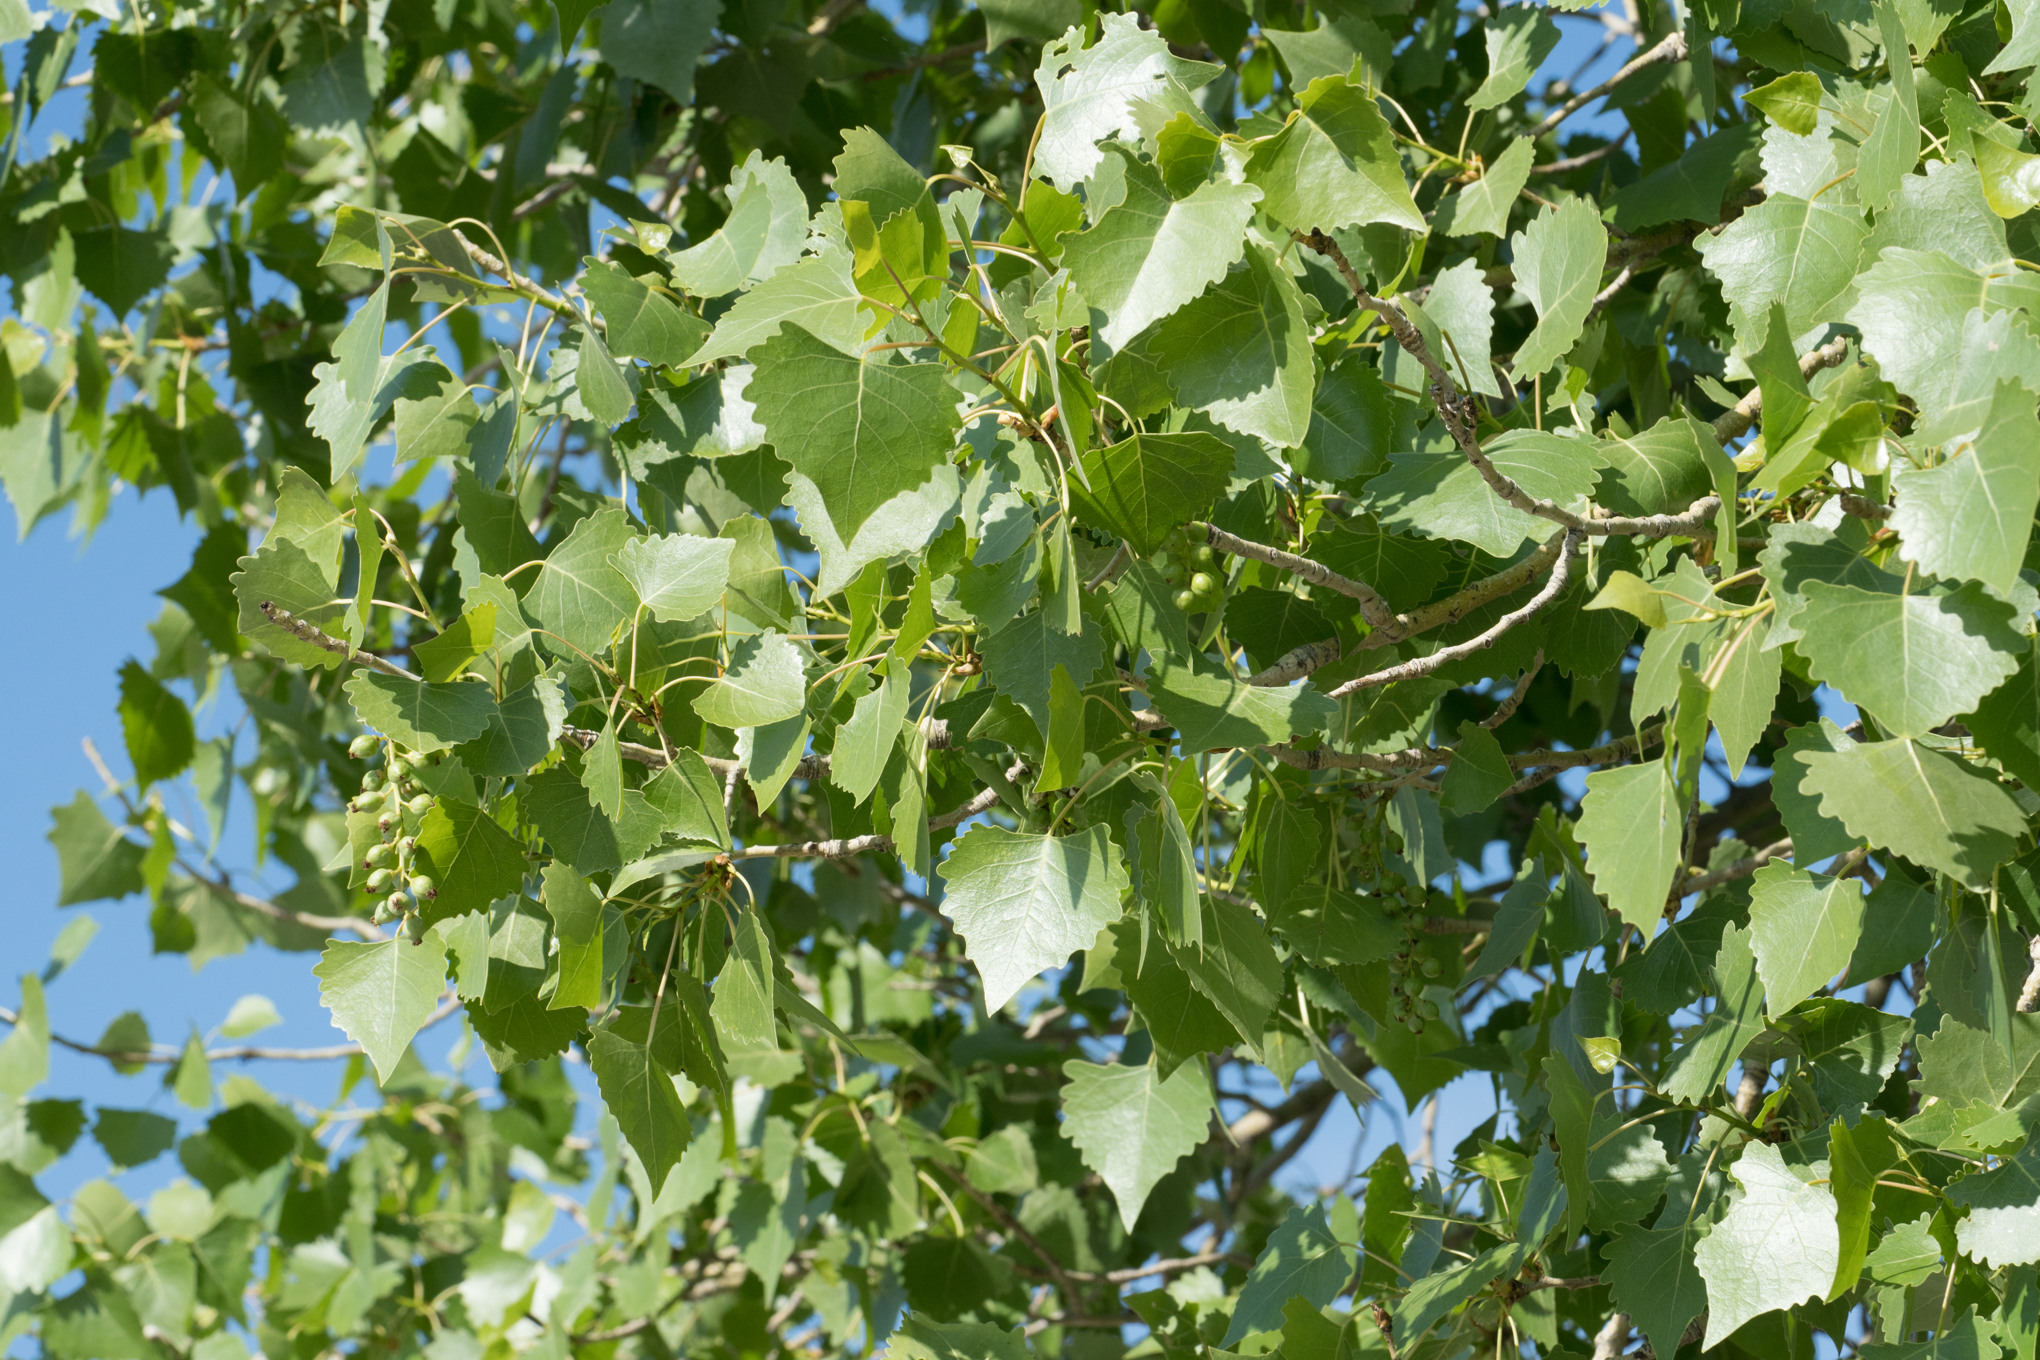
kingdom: Plantae
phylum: Tracheophyta
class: Magnoliopsida
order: Malpighiales
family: Salicaceae
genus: Populus
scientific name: Populus fremontii
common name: Fremont's cottonwood
